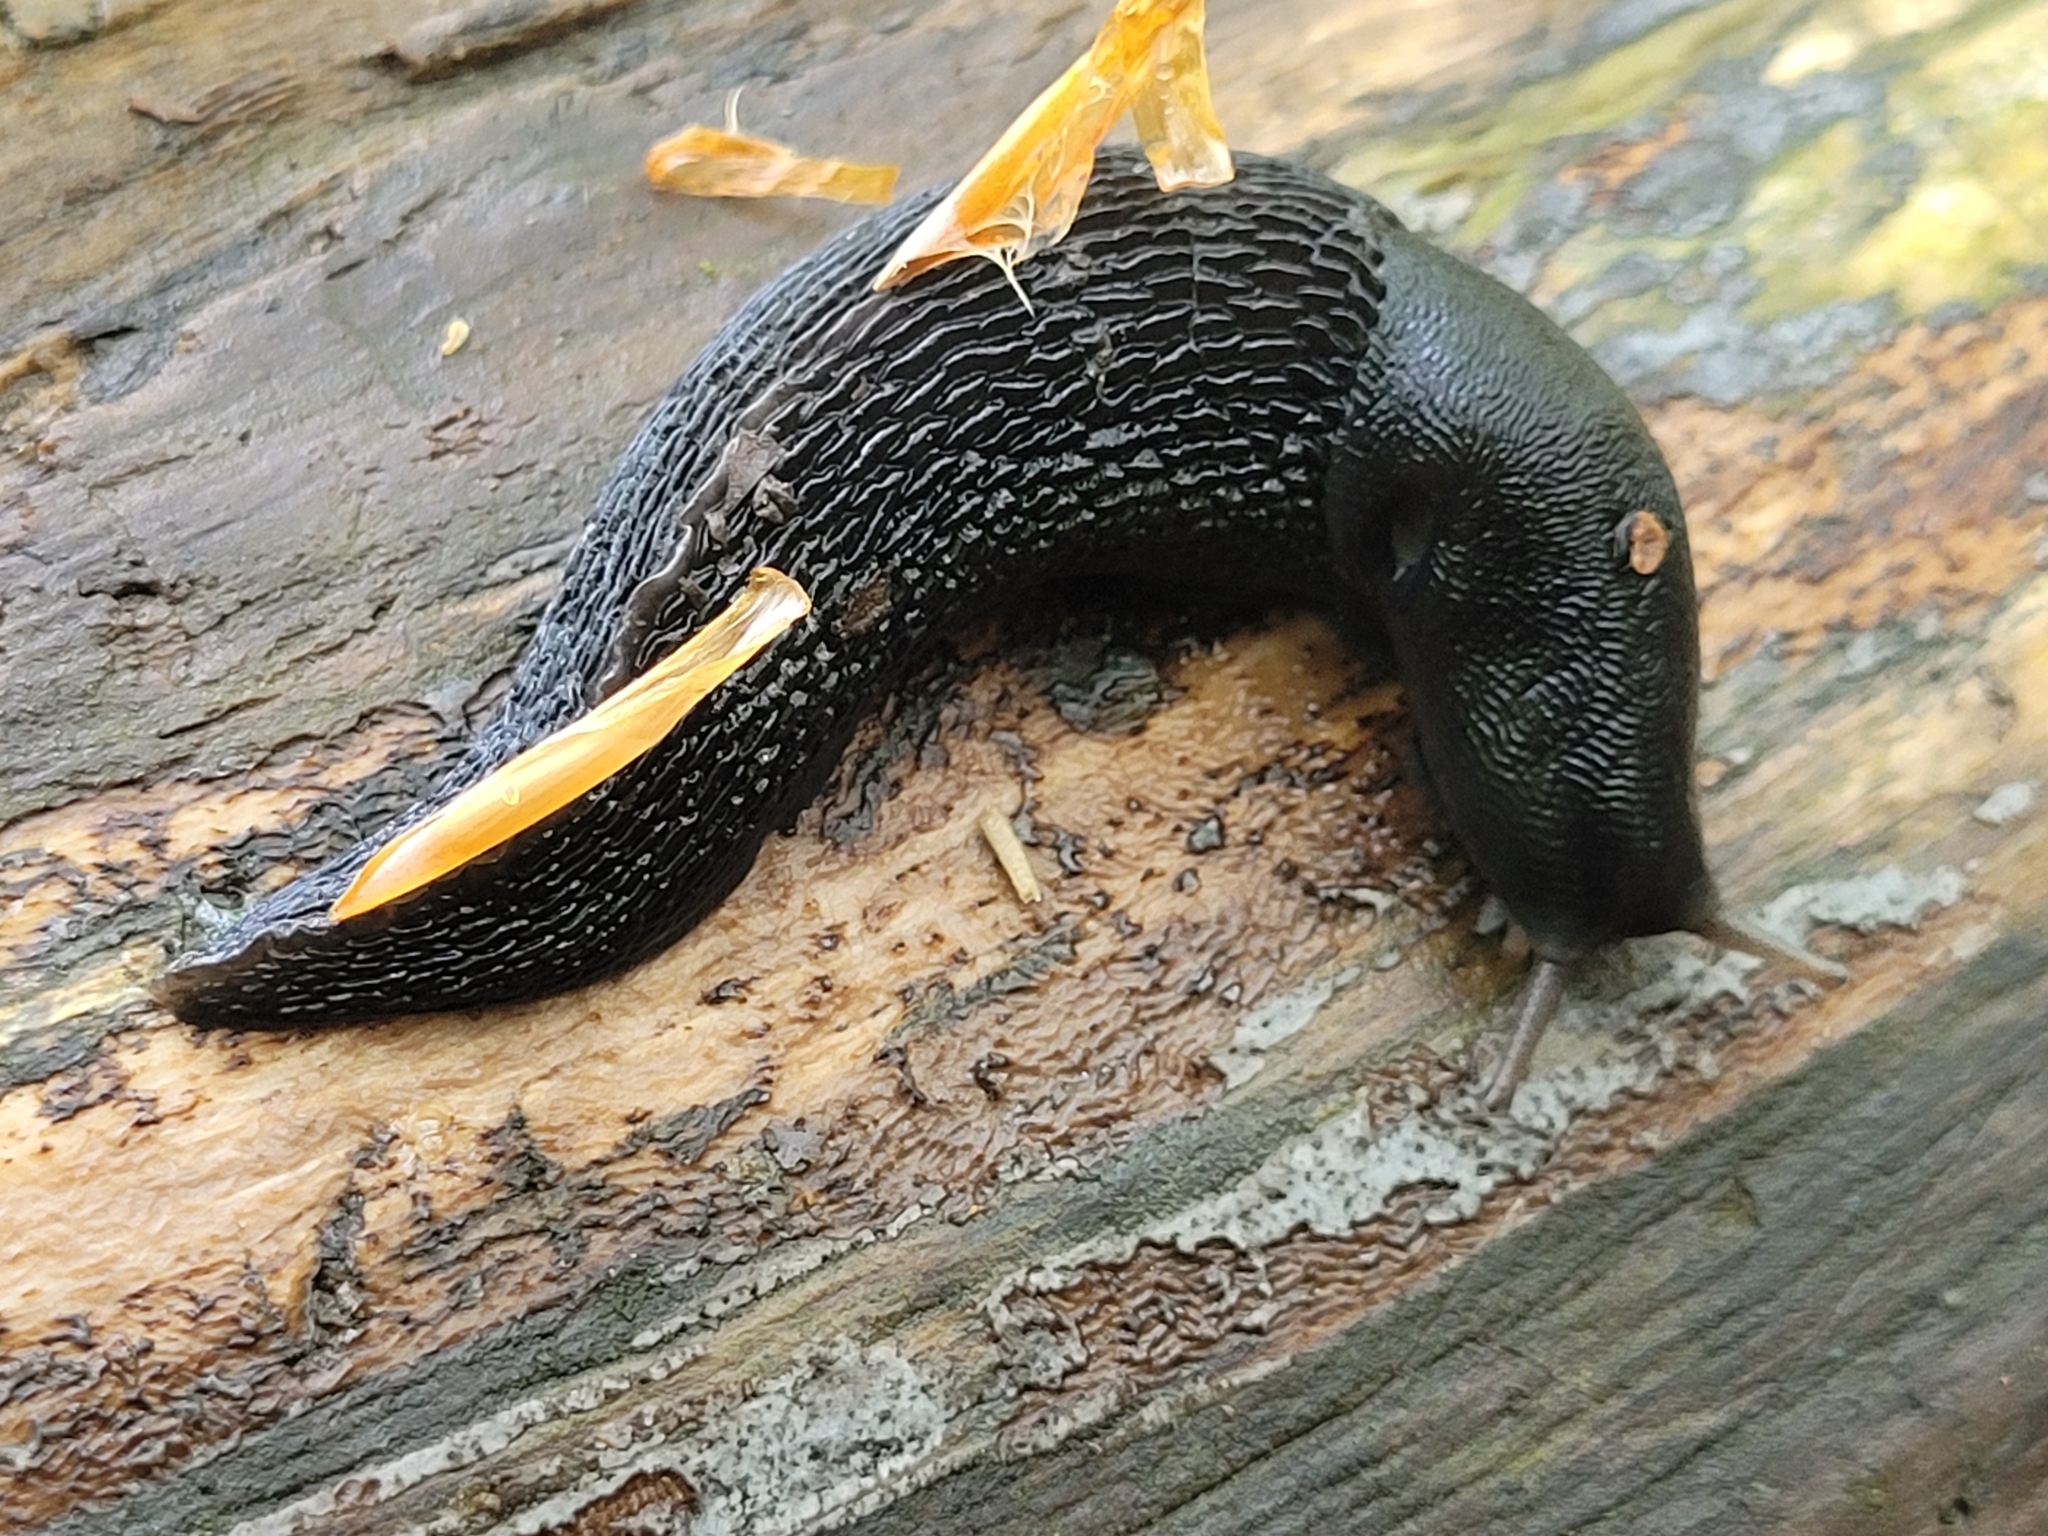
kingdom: Animalia
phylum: Mollusca
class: Gastropoda
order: Stylommatophora
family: Limacidae
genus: Limax
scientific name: Limax cinereoniger
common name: Ash-black slug
